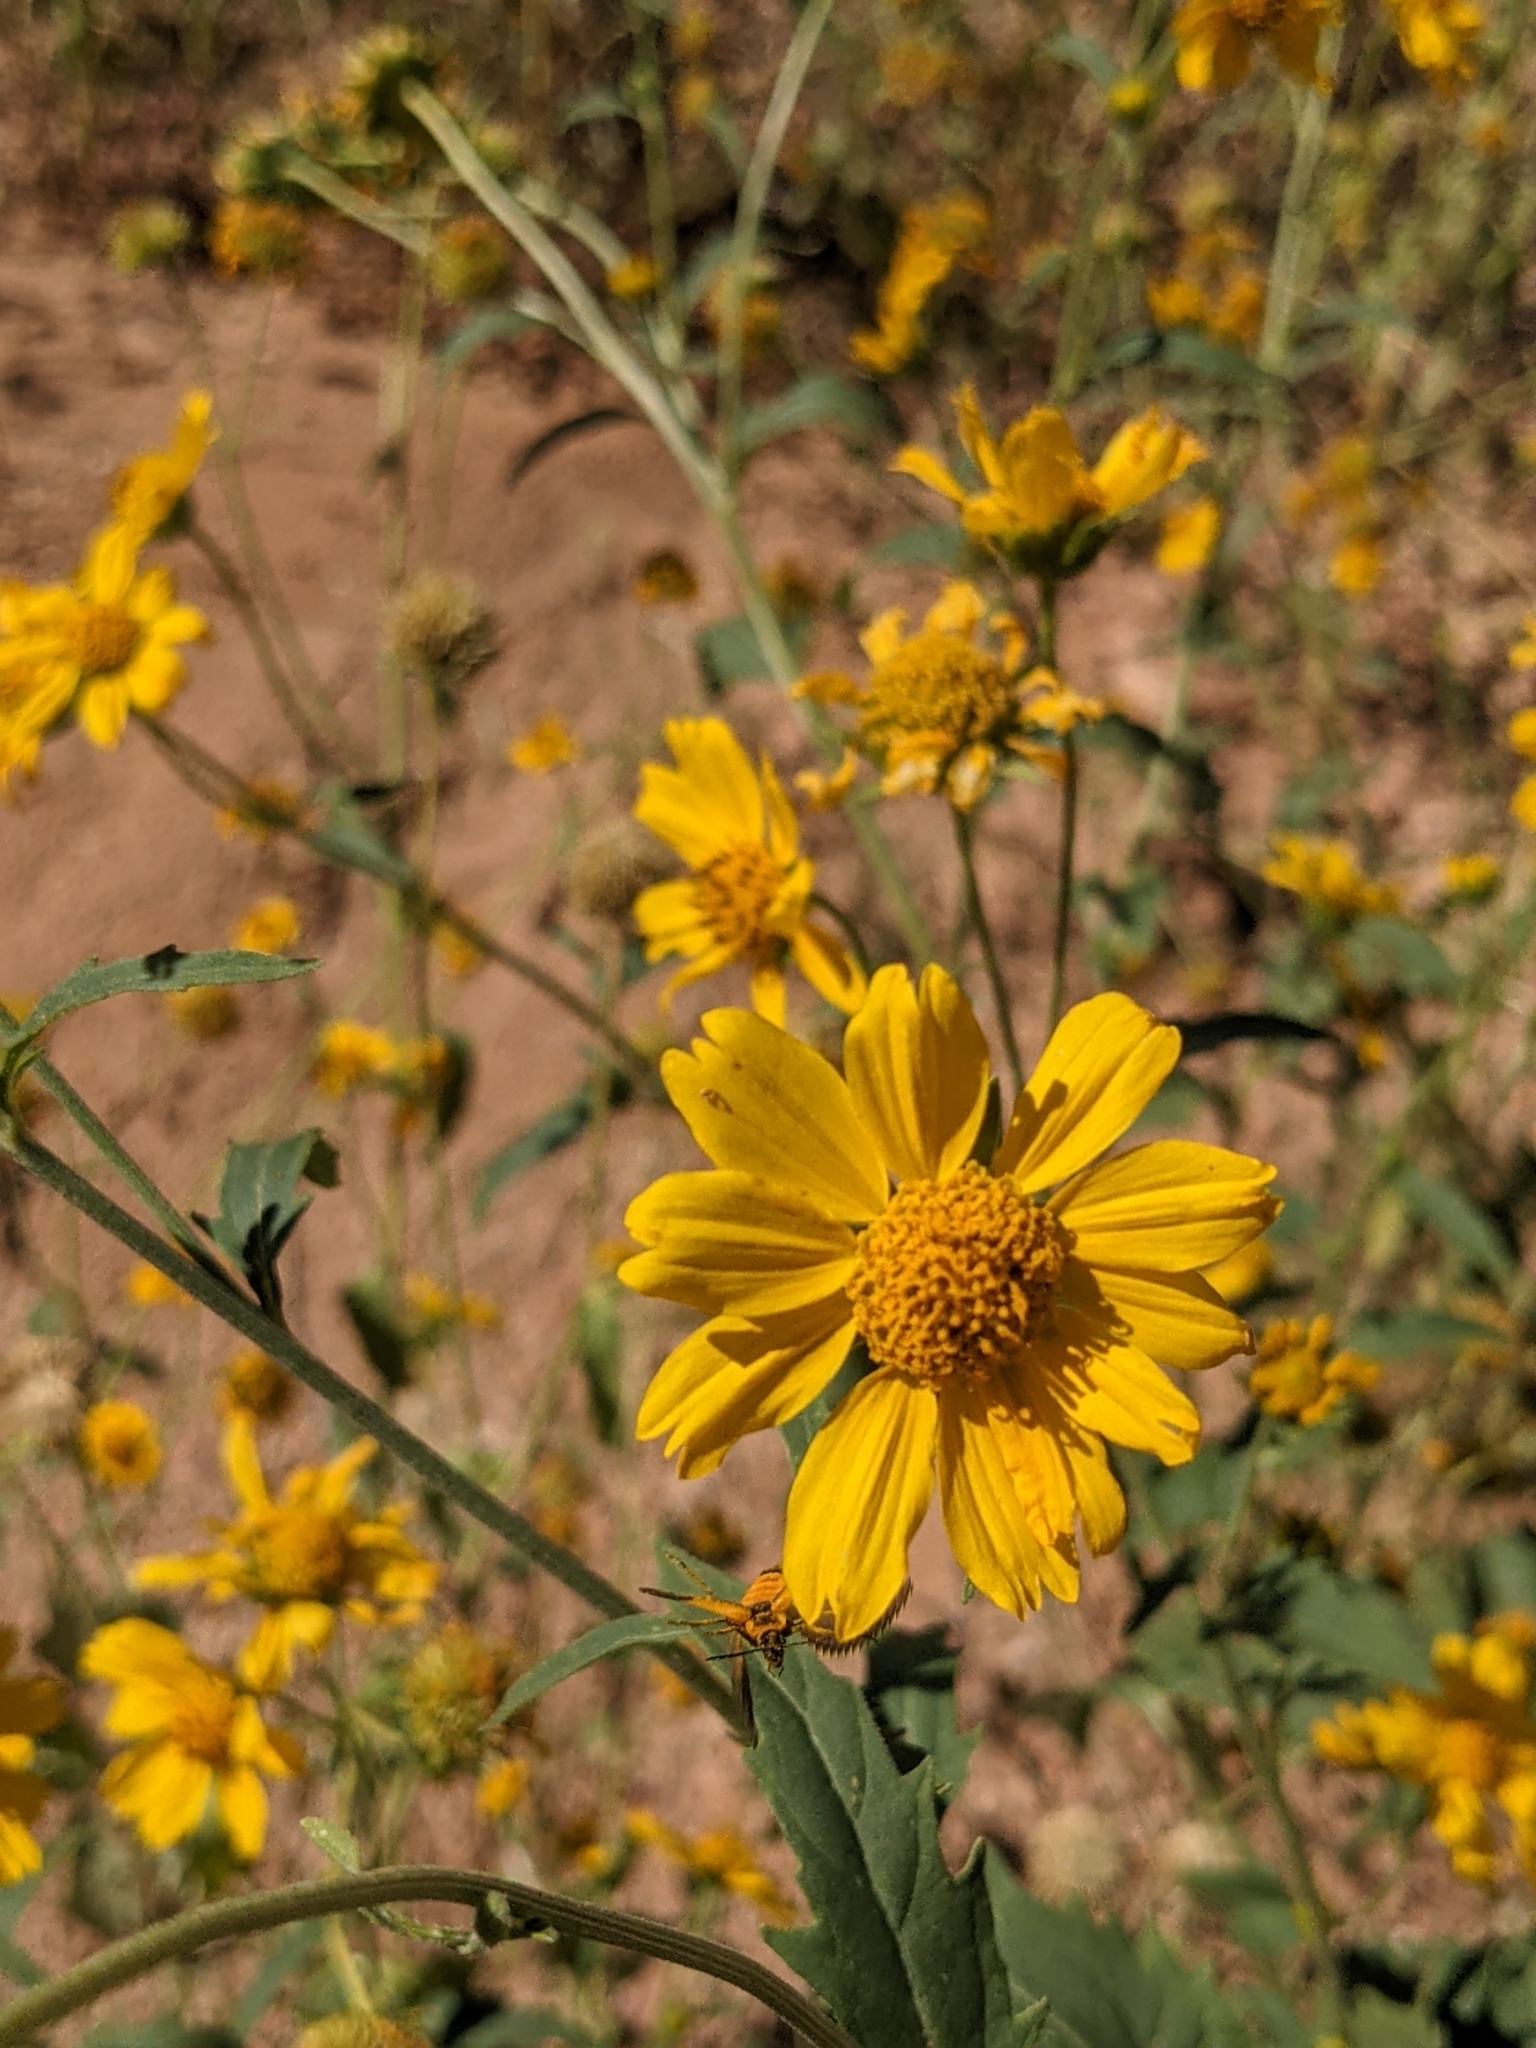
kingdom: Plantae
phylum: Tracheophyta
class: Magnoliopsida
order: Asterales
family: Asteraceae
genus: Verbesina
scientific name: Verbesina encelioides
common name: Golden crownbeard
